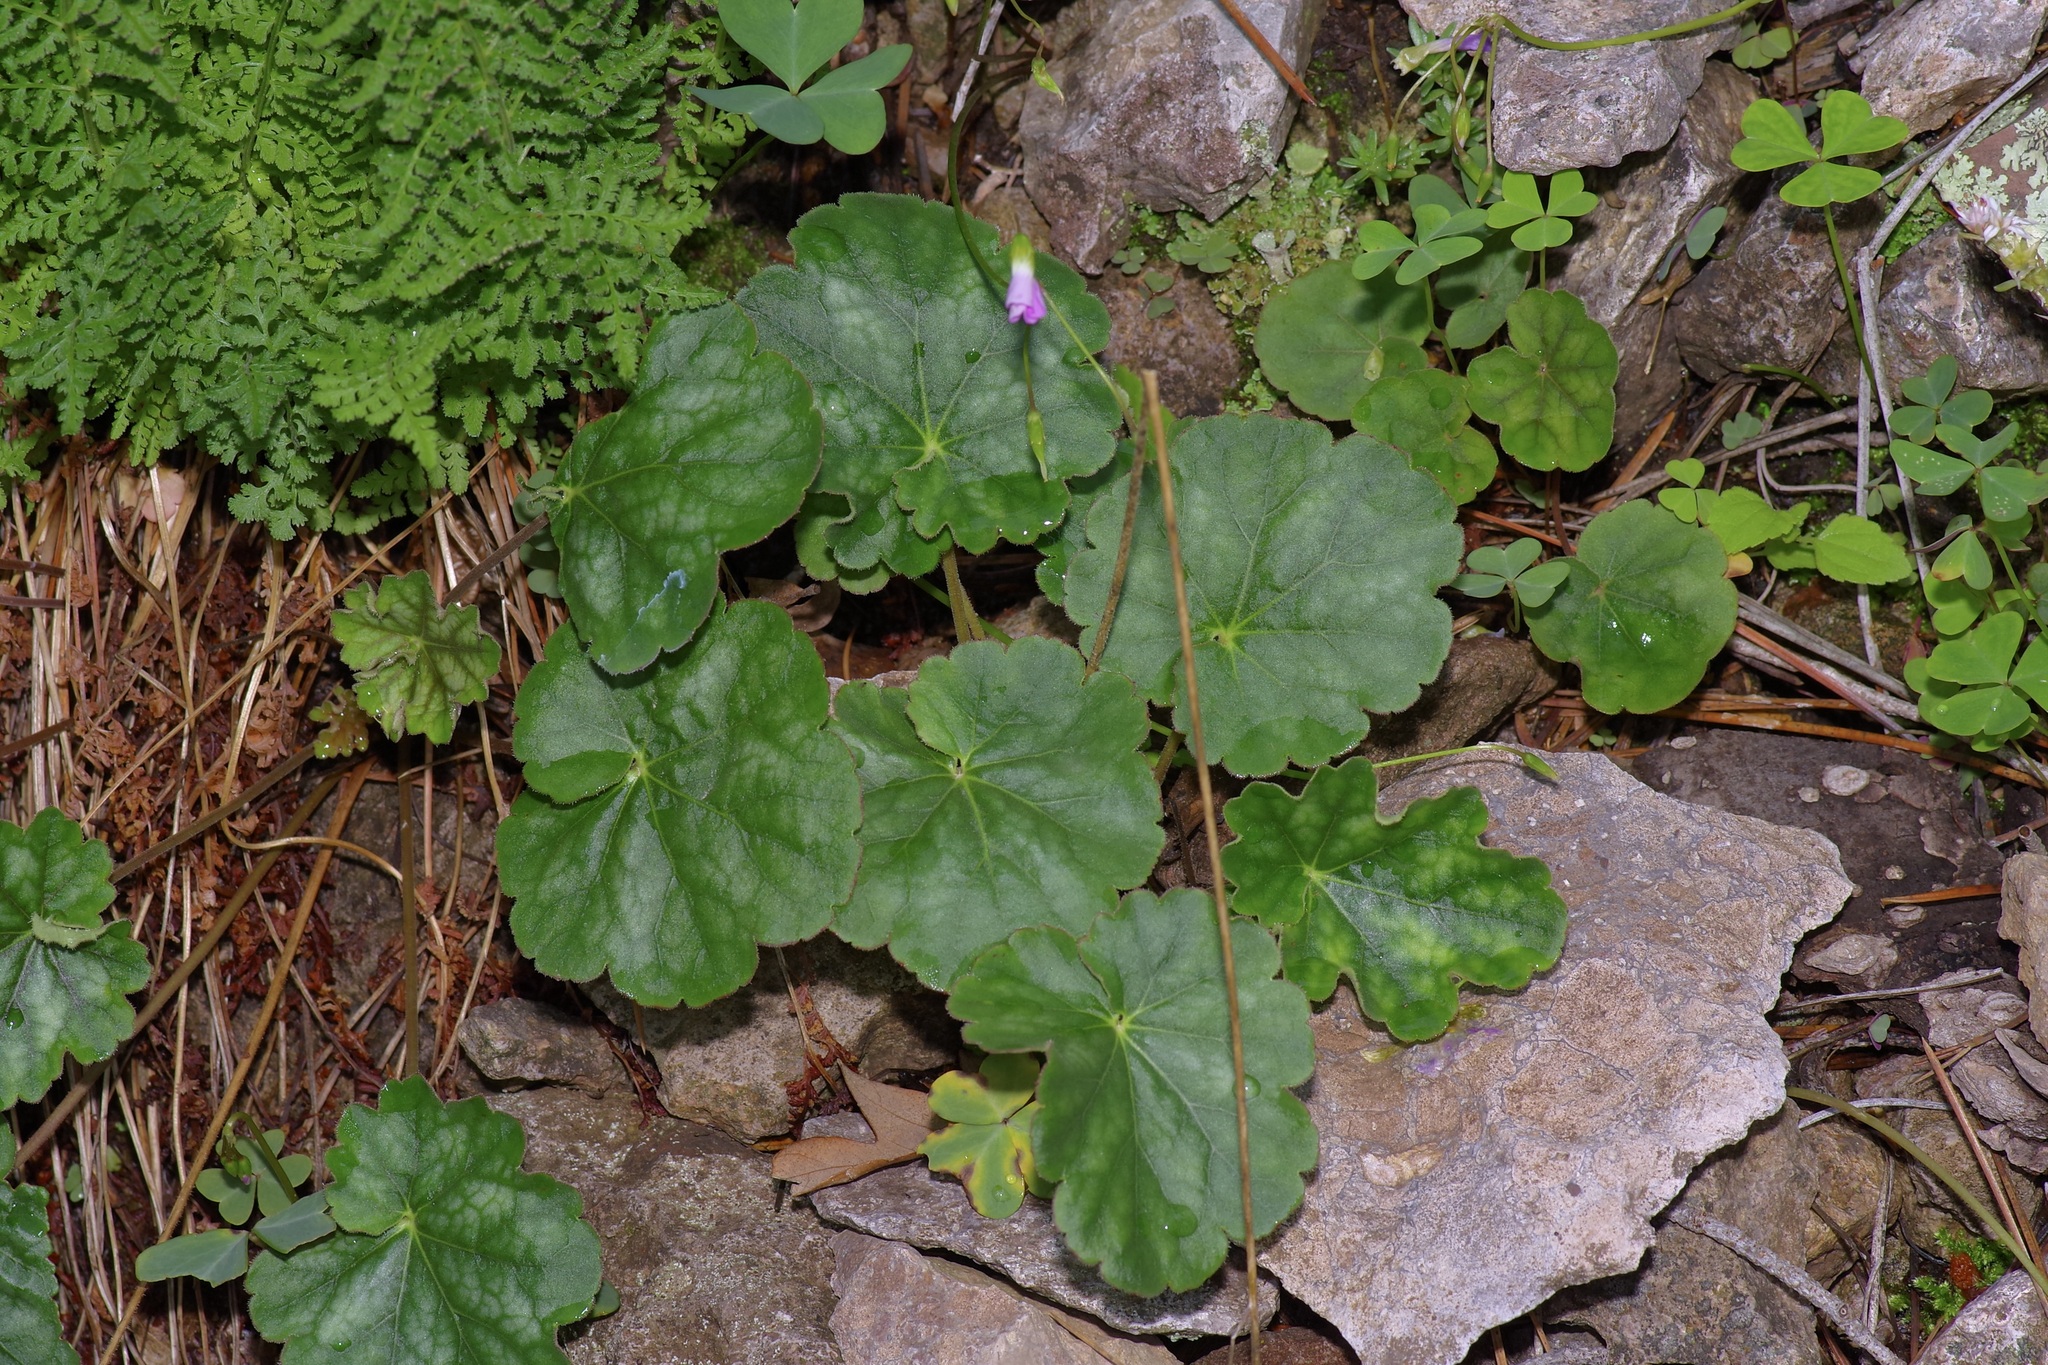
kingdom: Plantae
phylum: Tracheophyta
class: Magnoliopsida
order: Saxifragales
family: Saxifragaceae
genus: Heuchera
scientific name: Heuchera glomerulata
